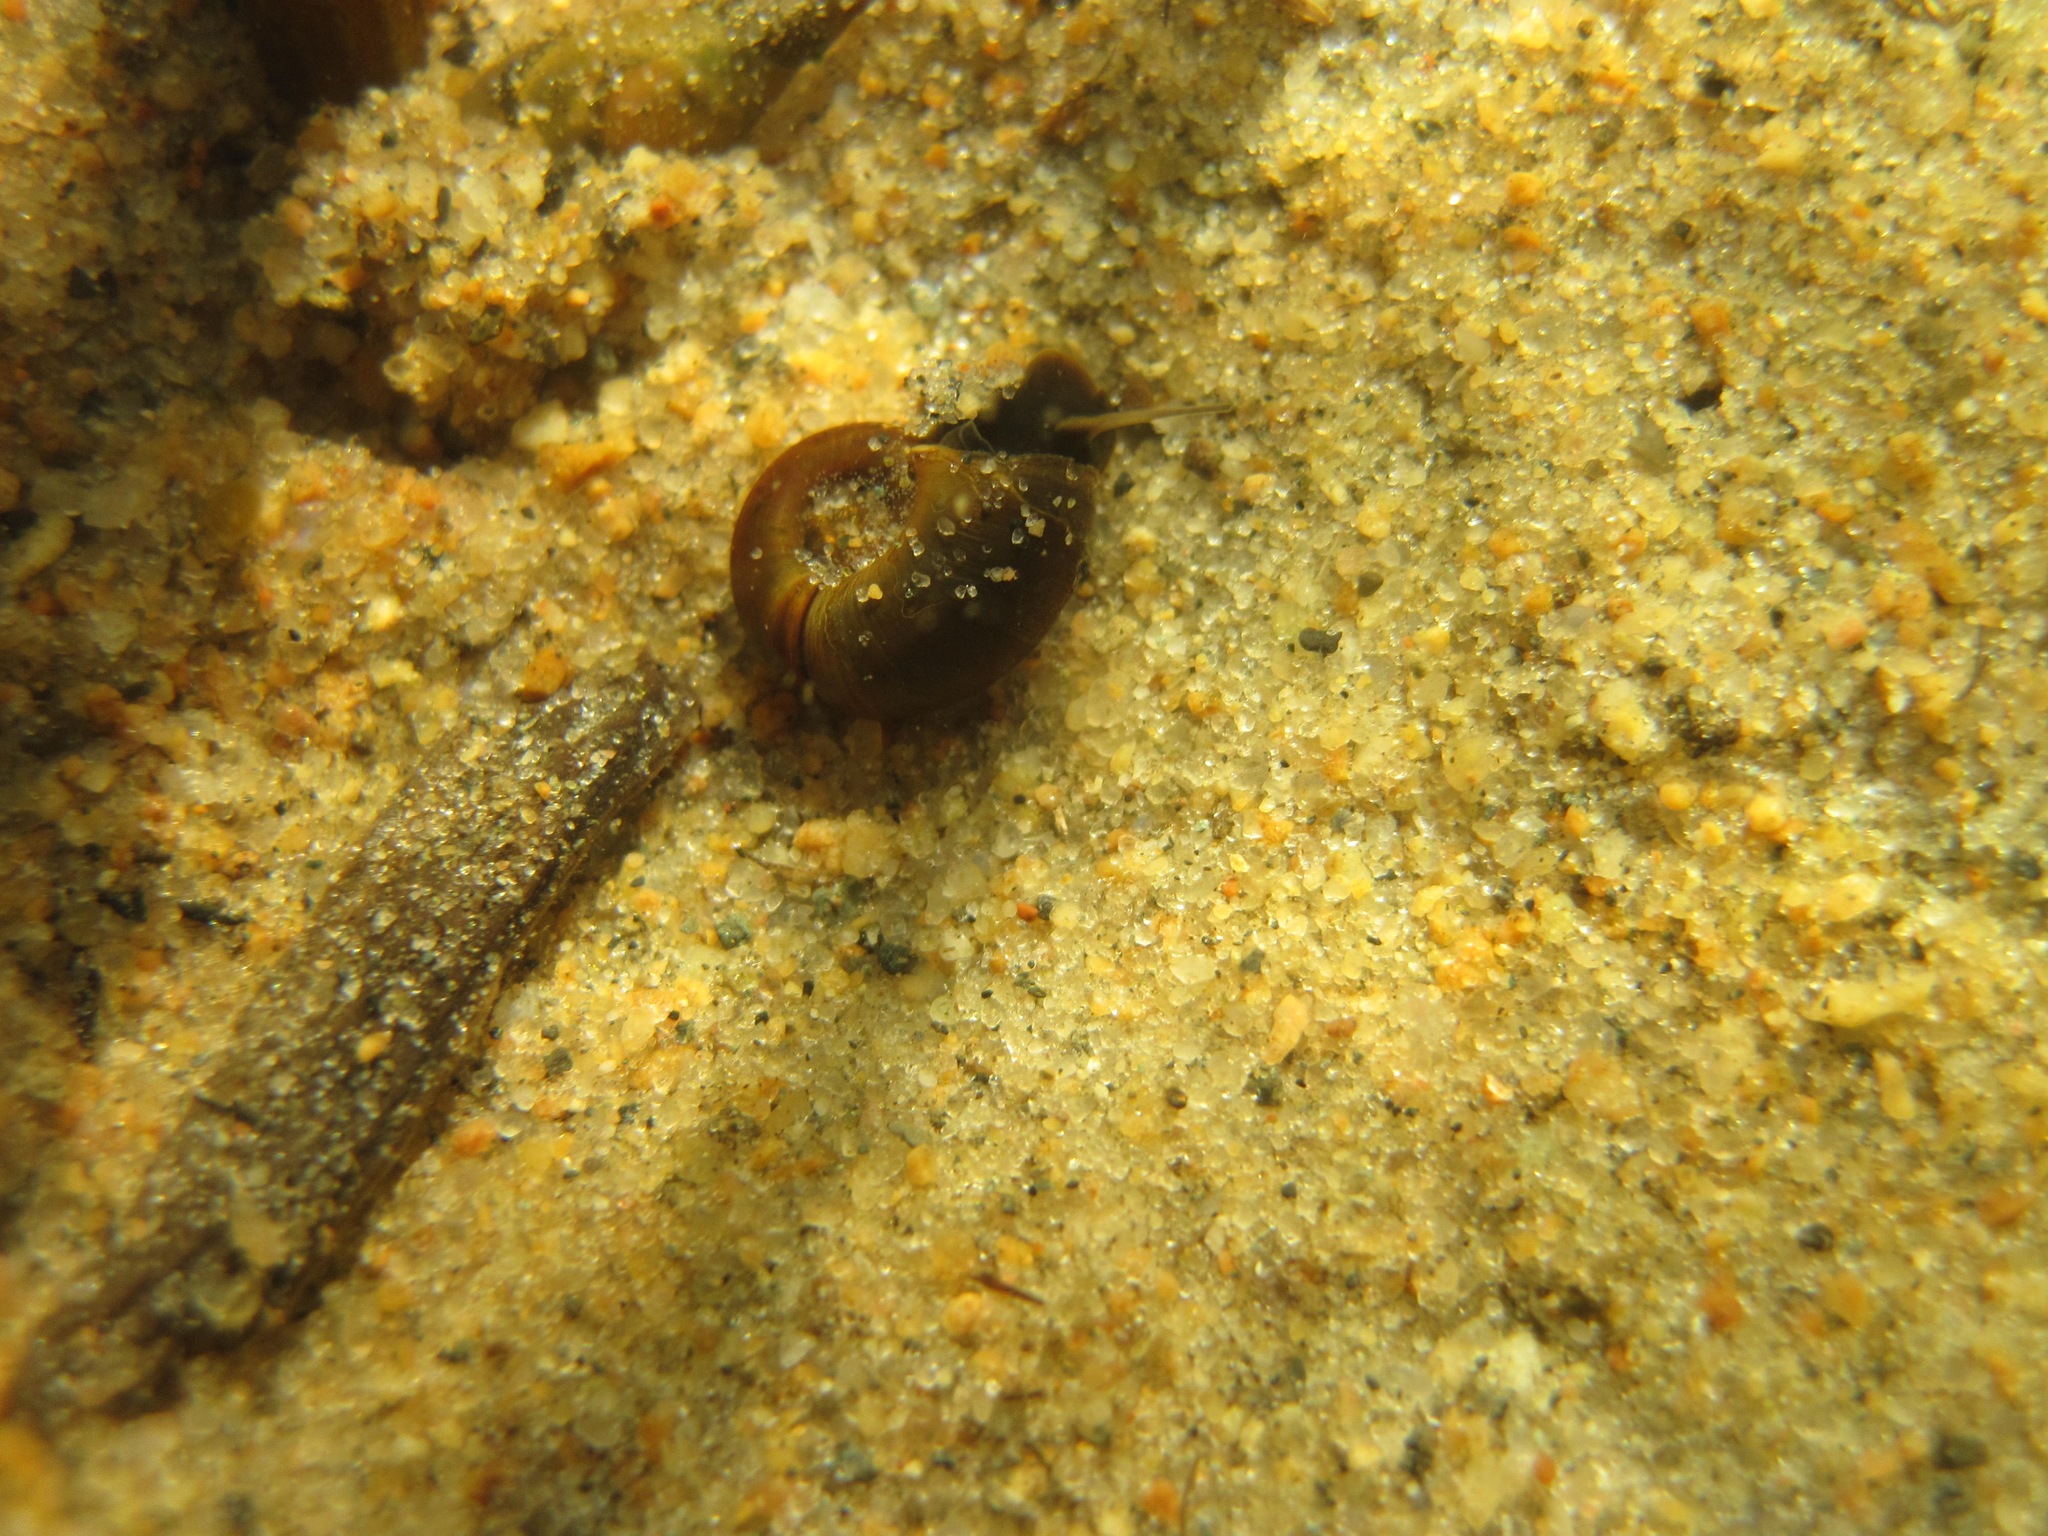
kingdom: Animalia
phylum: Mollusca
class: Gastropoda
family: Planorbidae
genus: Planorbarius
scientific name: Planorbarius corneus
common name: Great ramshorn
